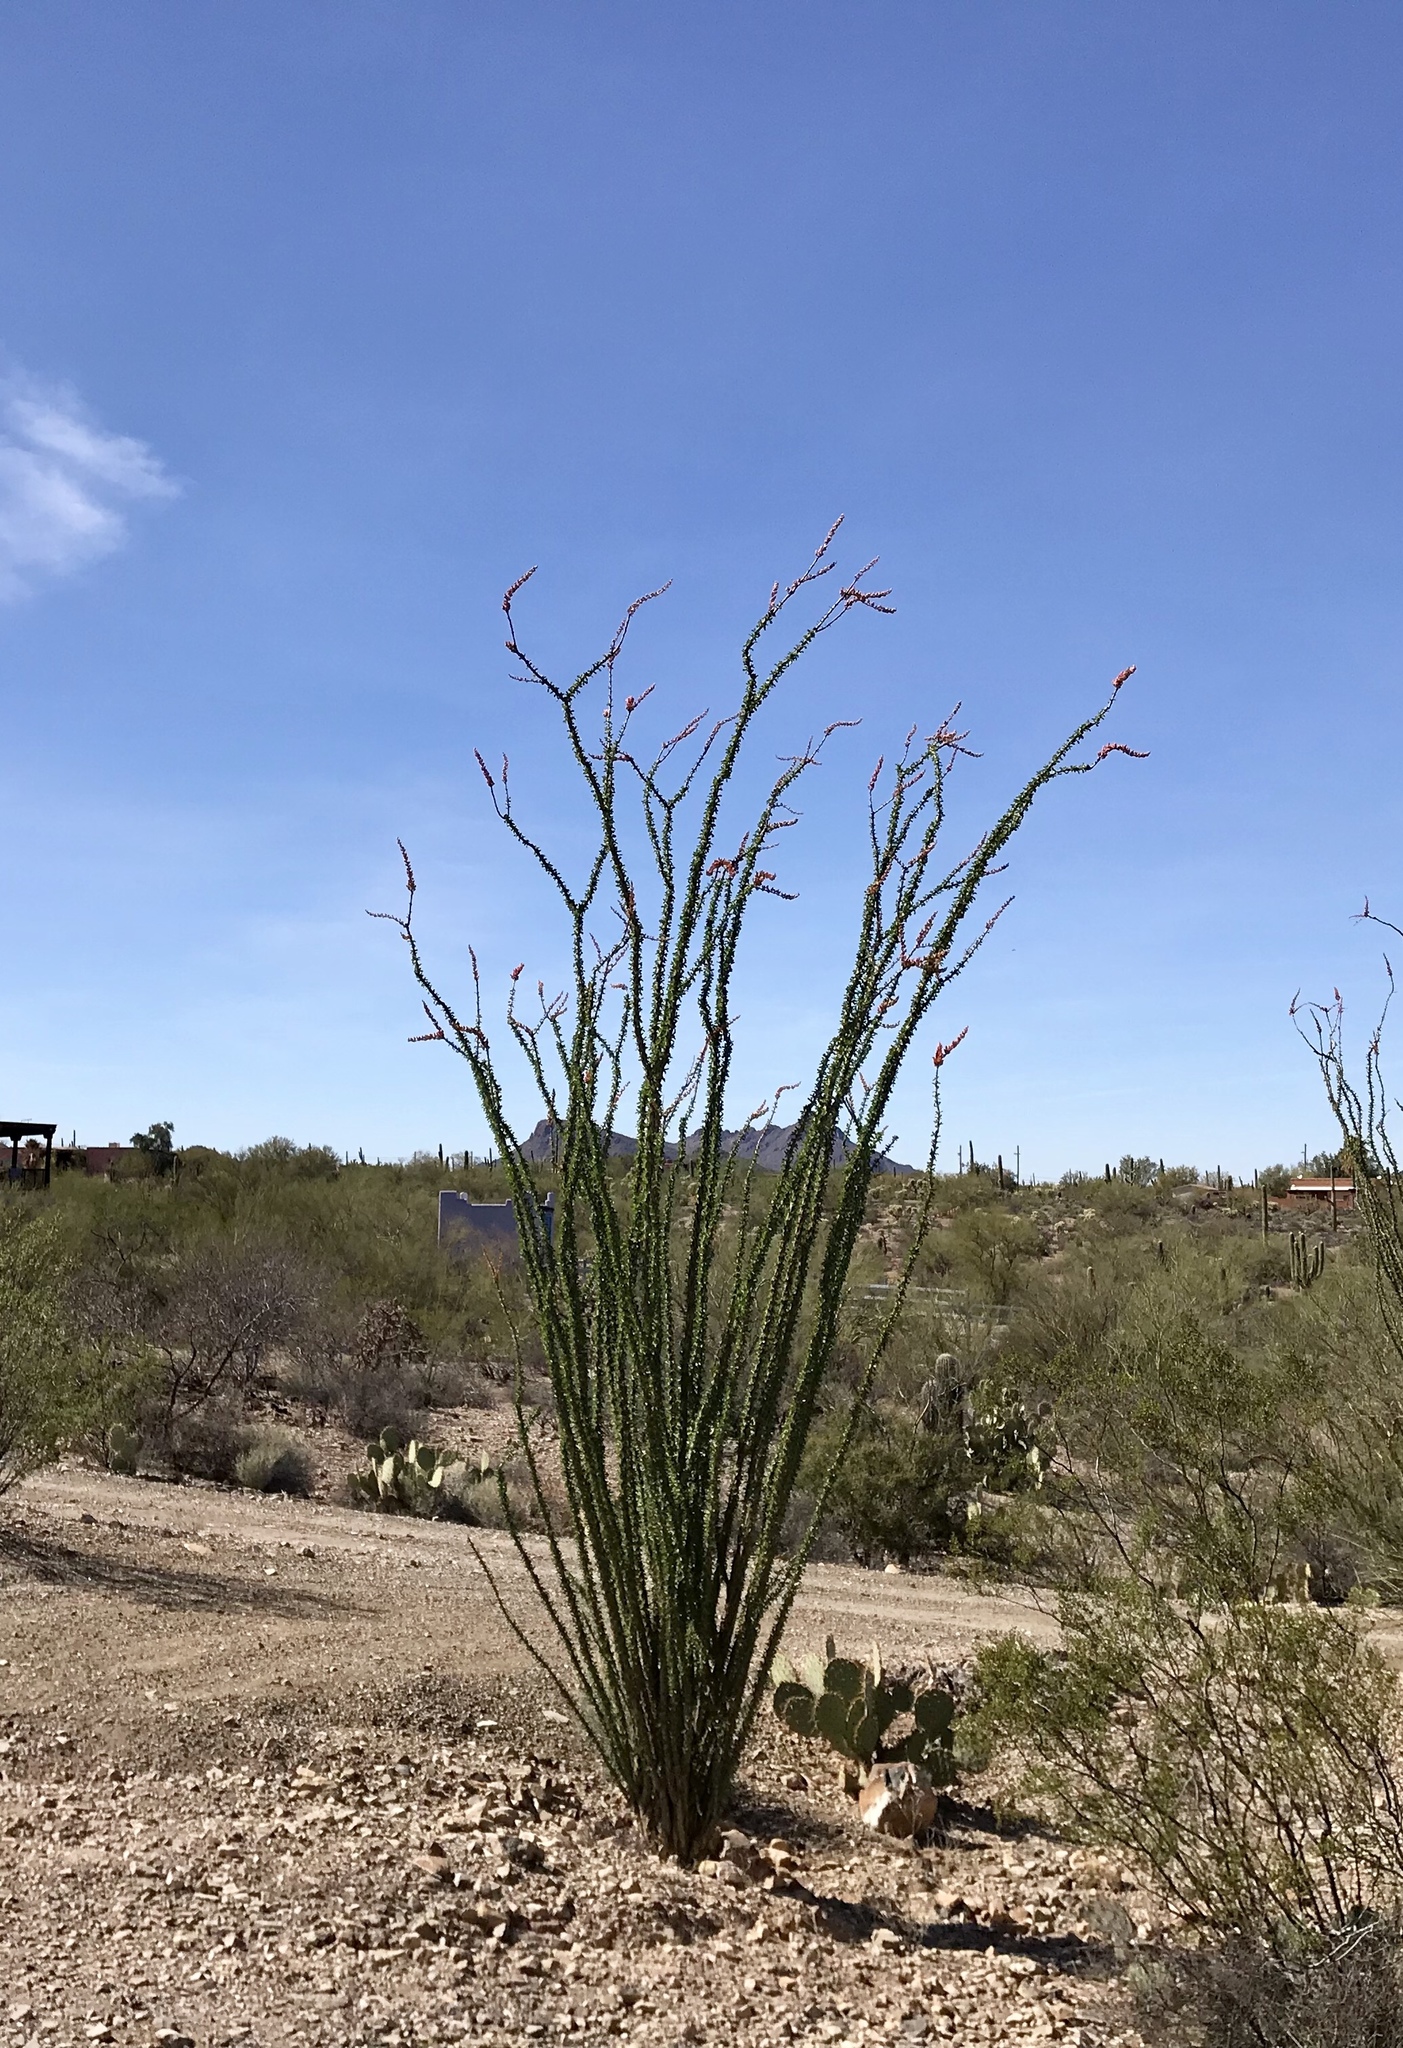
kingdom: Plantae
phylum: Tracheophyta
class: Magnoliopsida
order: Ericales
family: Fouquieriaceae
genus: Fouquieria
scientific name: Fouquieria splendens
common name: Vine-cactus
